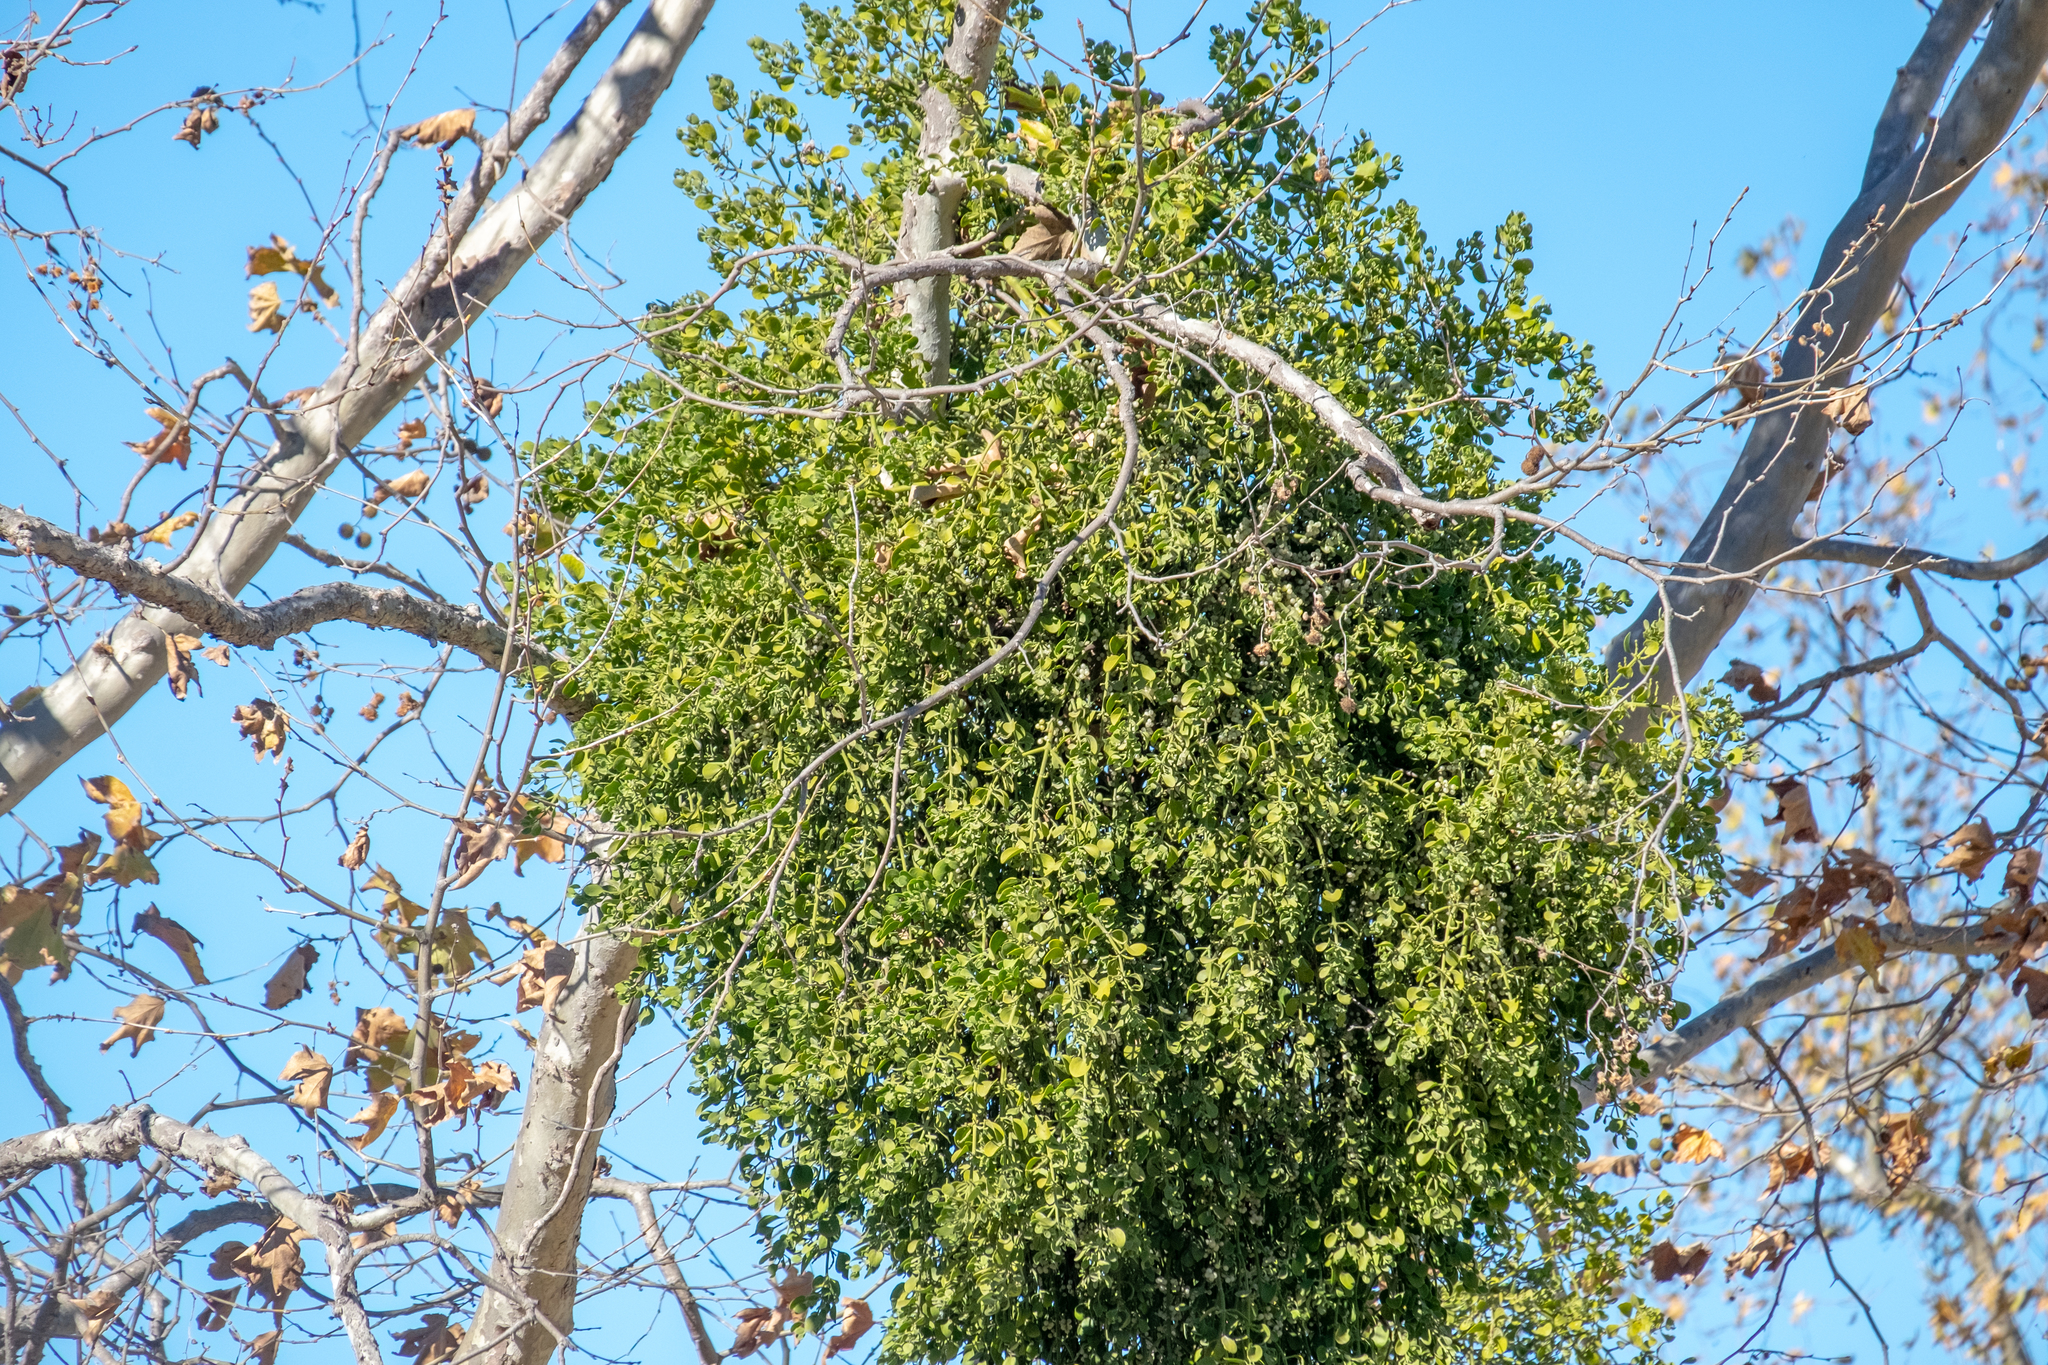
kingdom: Plantae
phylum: Tracheophyta
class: Magnoliopsida
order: Santalales
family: Viscaceae
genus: Phoradendron
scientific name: Phoradendron
